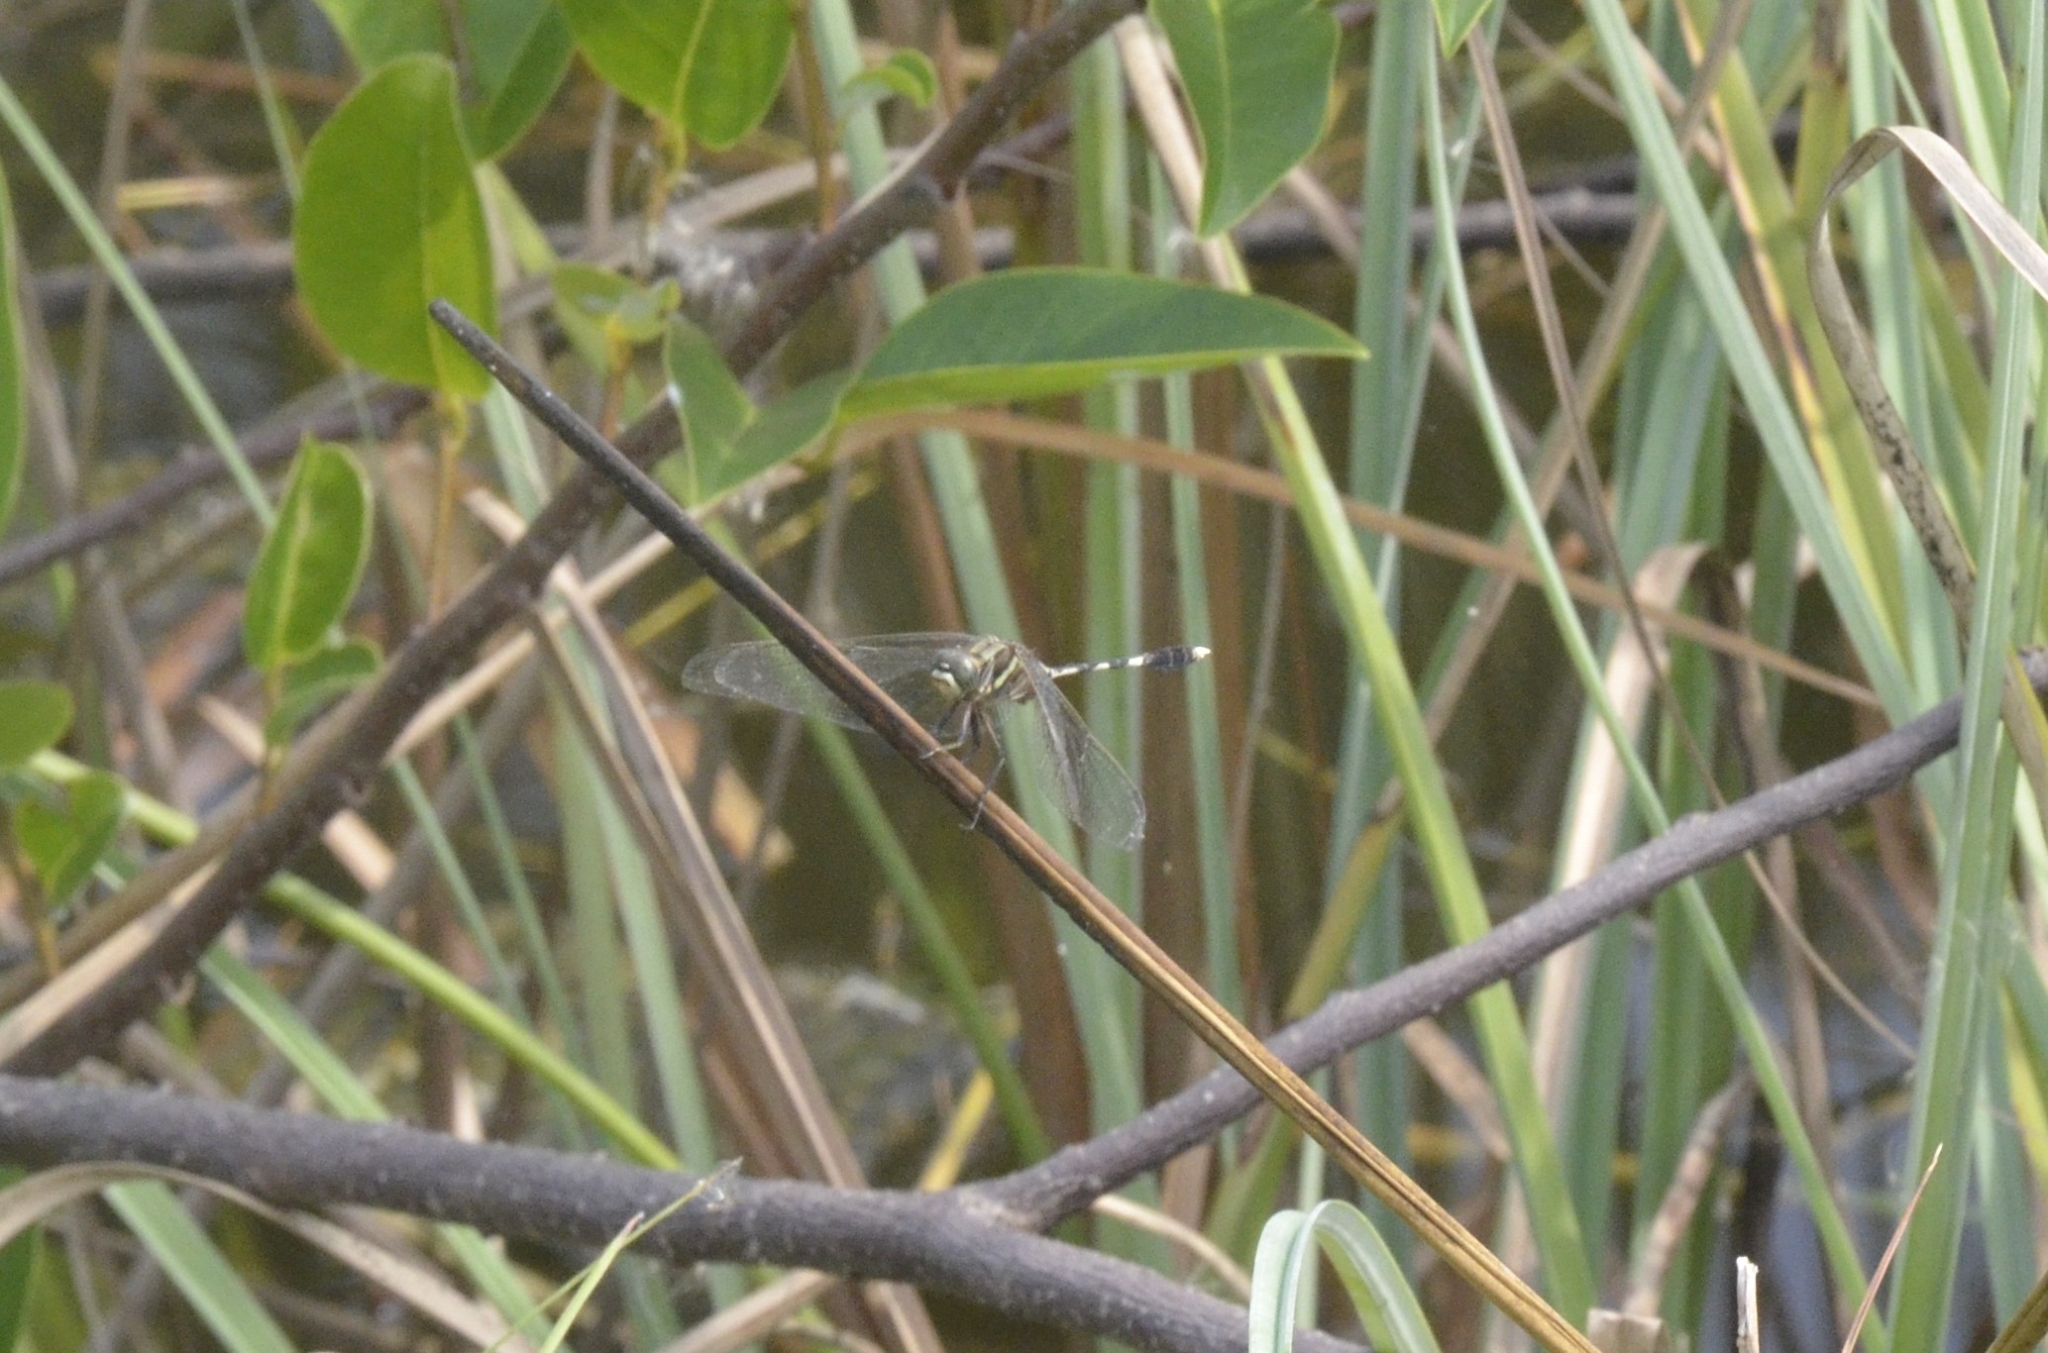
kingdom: Animalia
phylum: Arthropoda
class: Insecta
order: Odonata
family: Libellulidae
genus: Orthetrum
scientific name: Orthetrum sabina
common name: Slender skimmer
